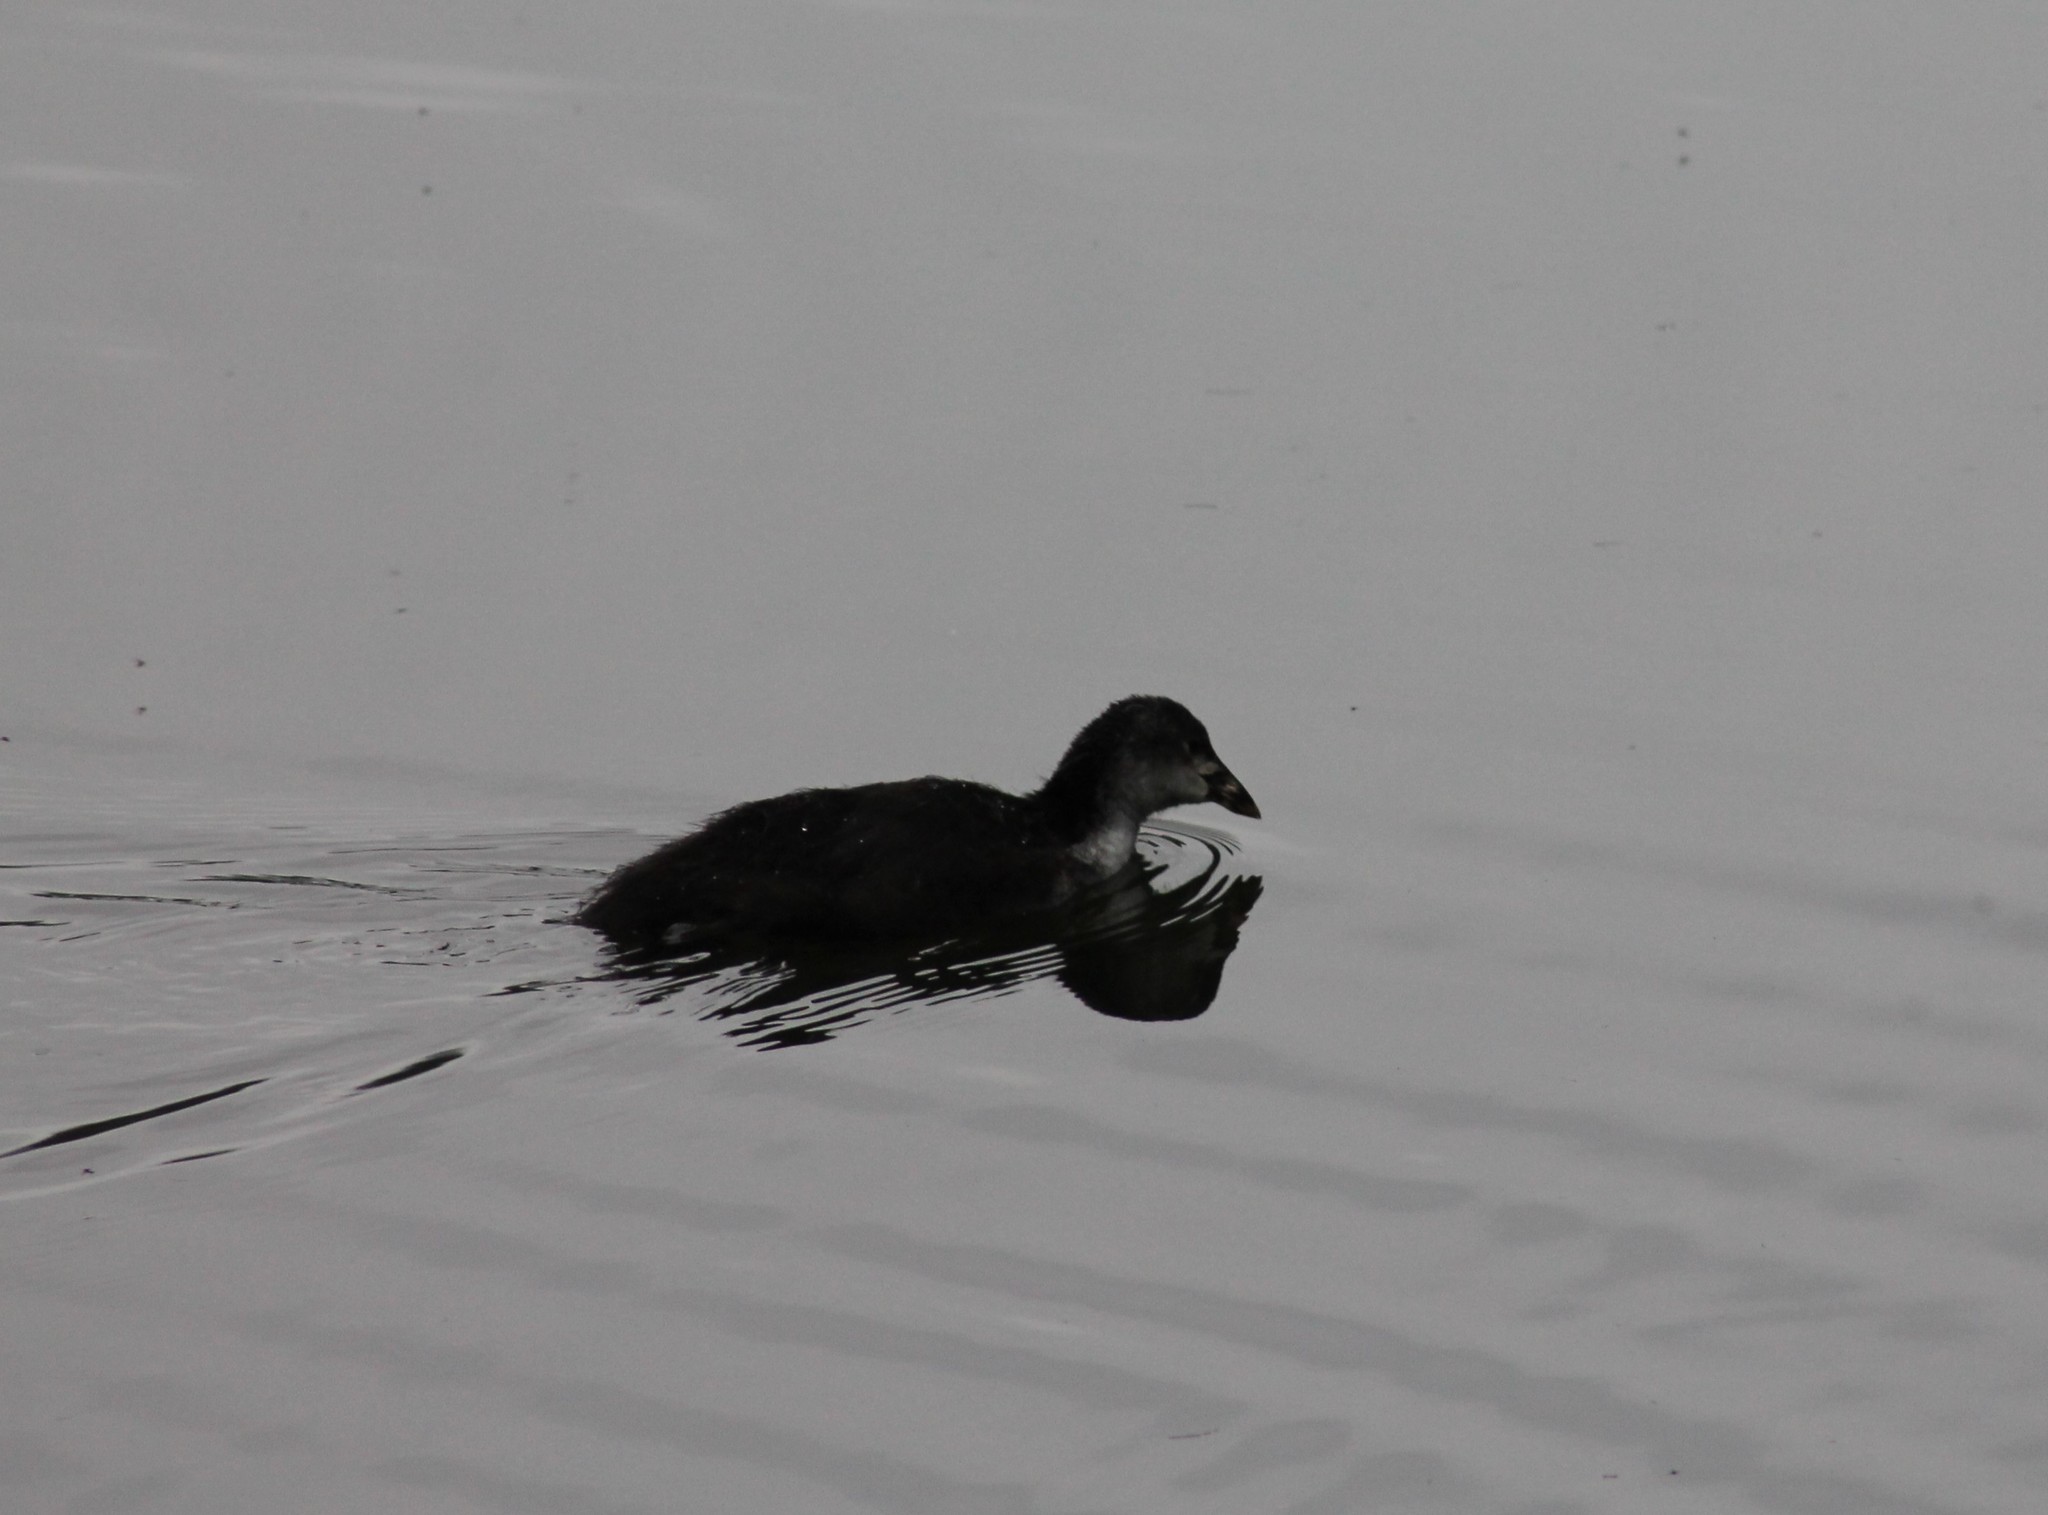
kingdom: Animalia
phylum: Chordata
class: Aves
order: Gruiformes
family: Rallidae
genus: Fulica
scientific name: Fulica atra
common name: Eurasian coot
